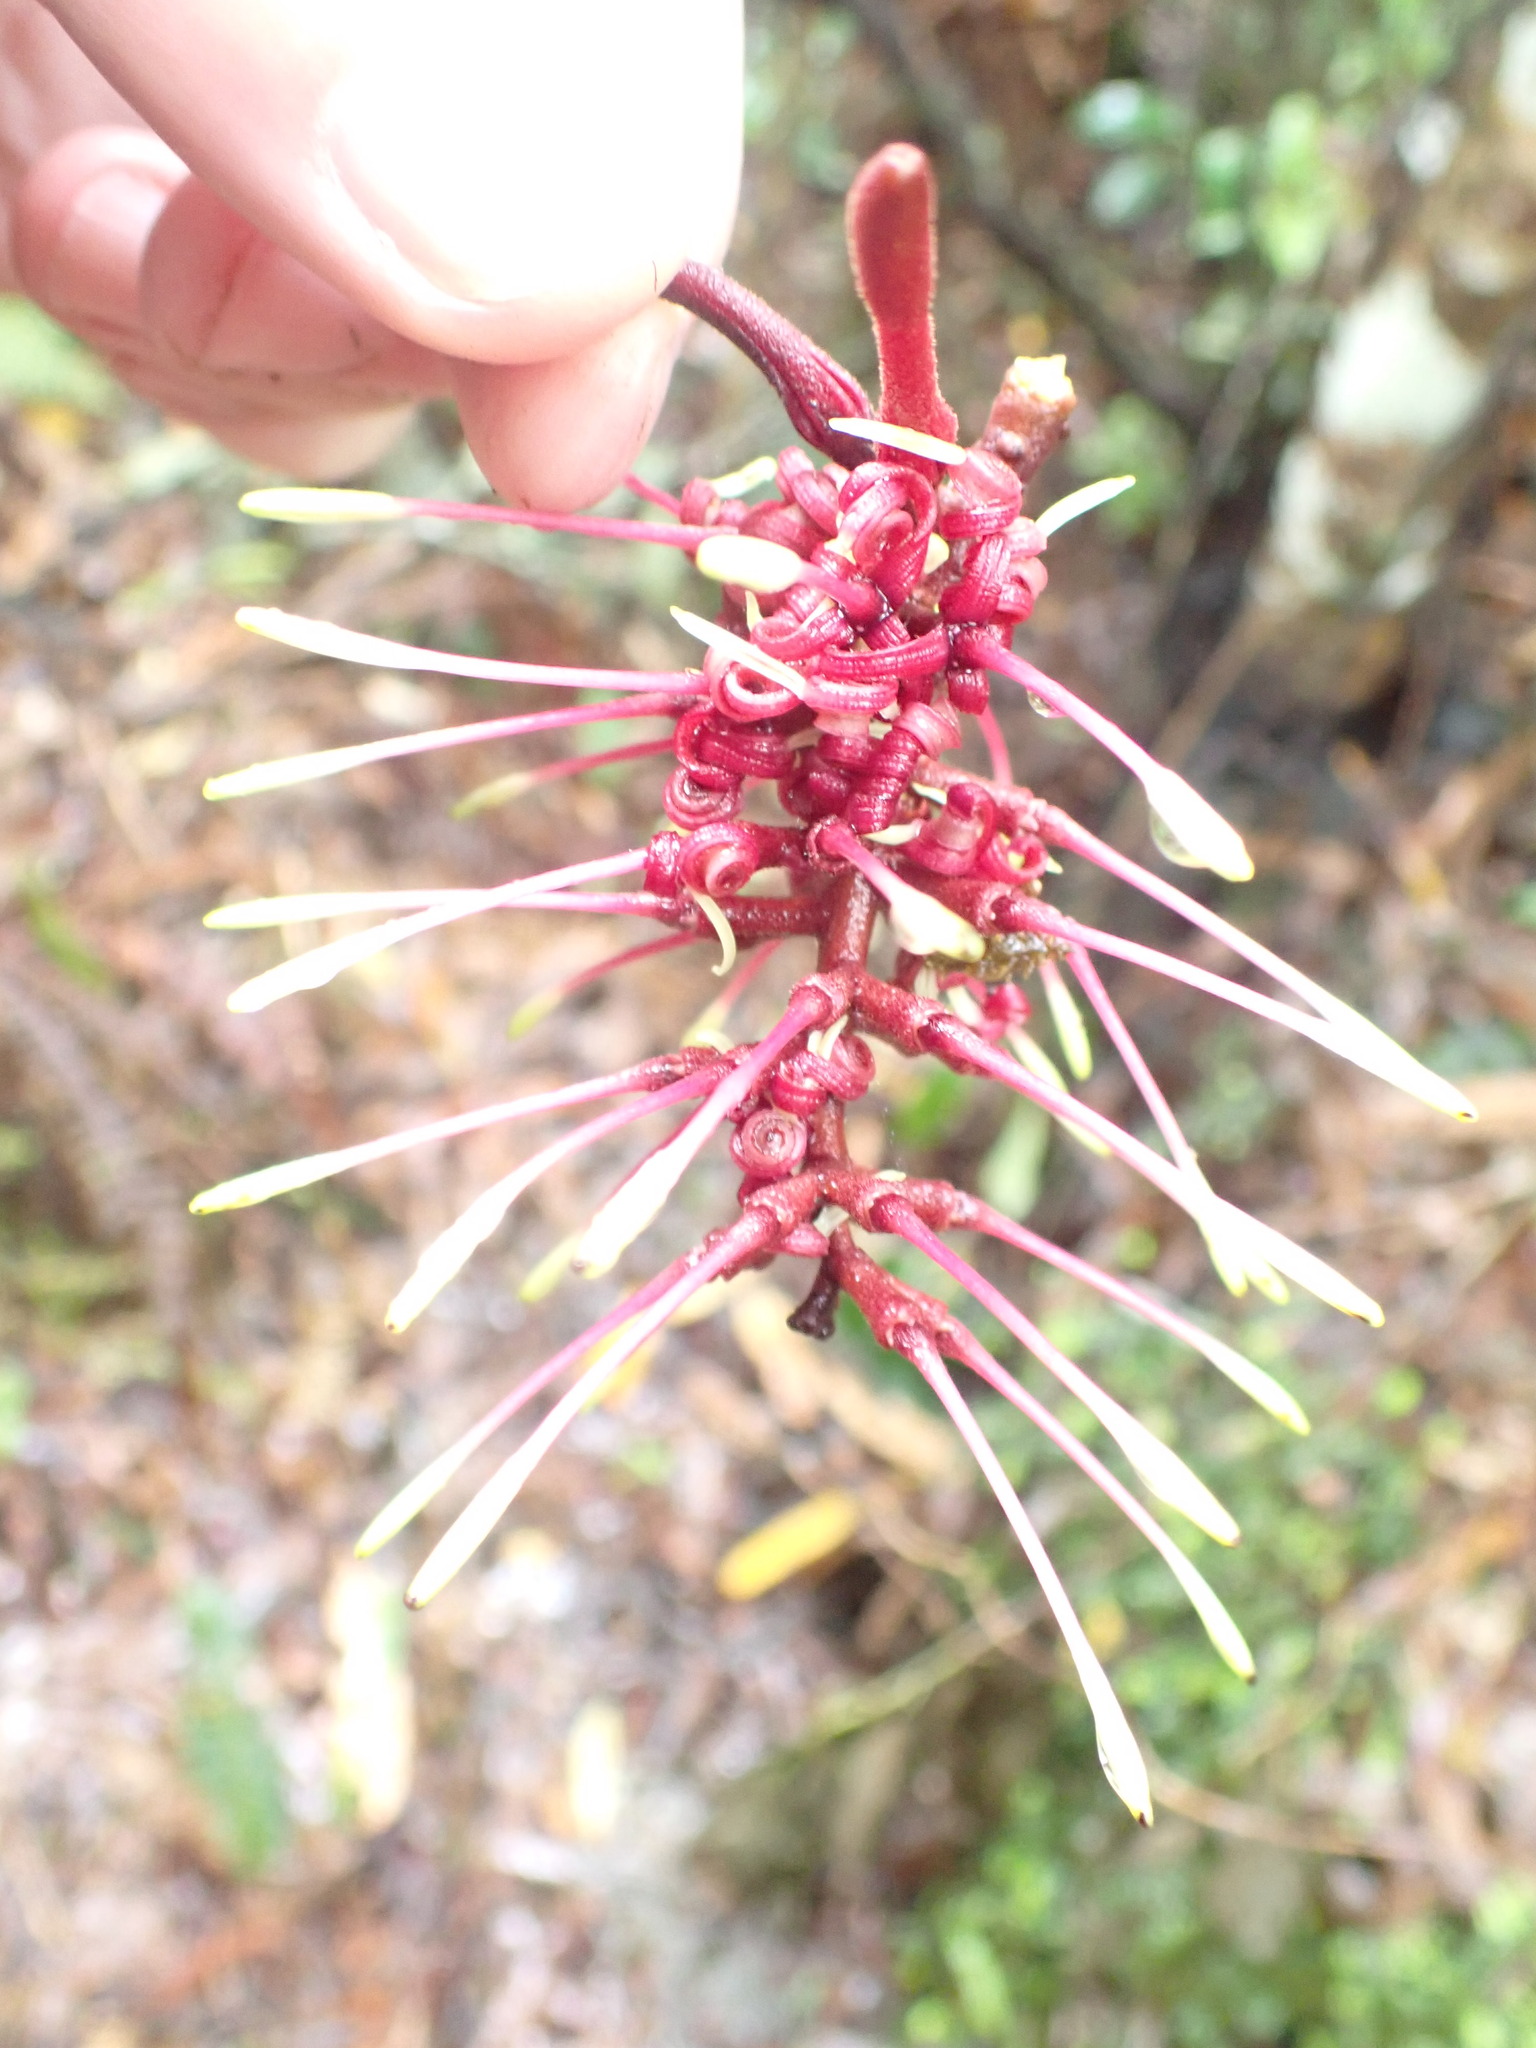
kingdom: Plantae
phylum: Tracheophyta
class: Magnoliopsida
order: Proteales
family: Proteaceae
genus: Knightia
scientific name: Knightia excelsa
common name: New zealand-honeysuckle
